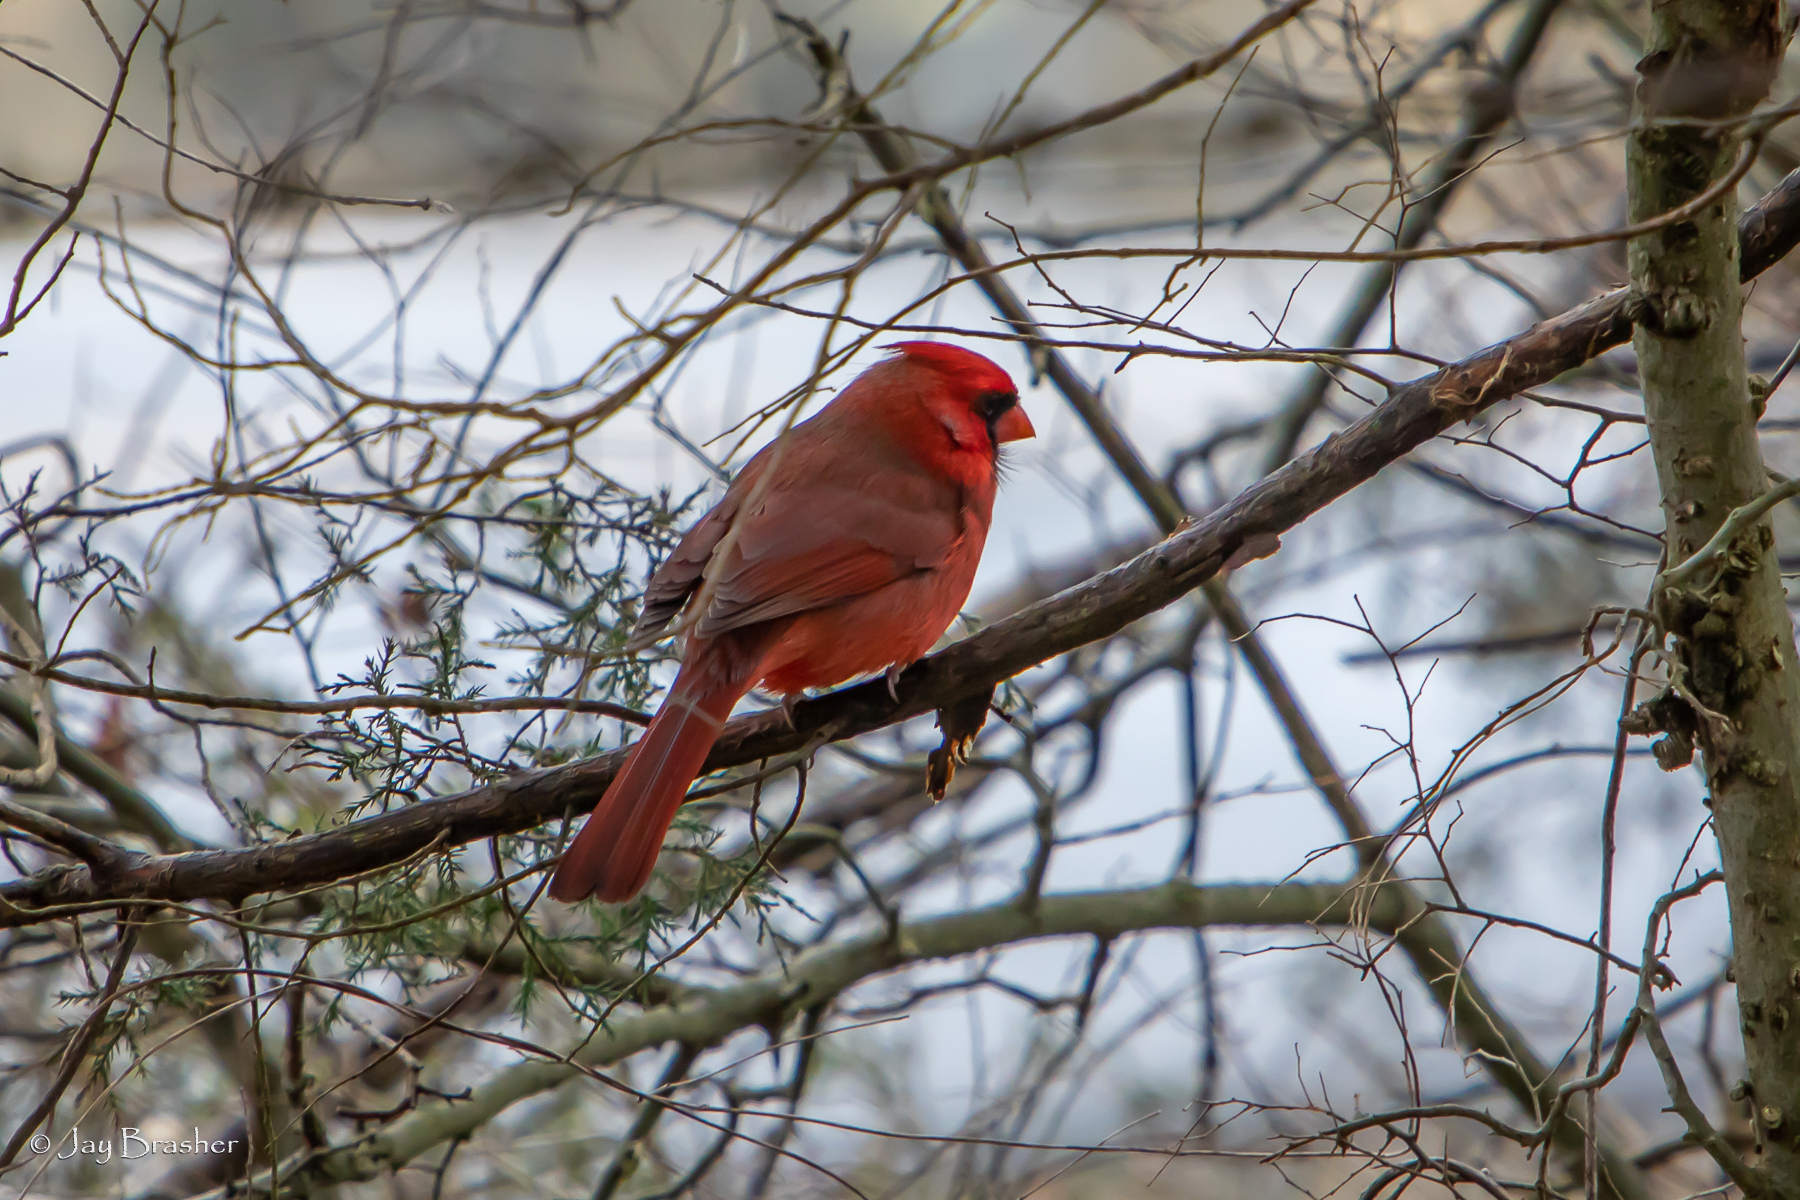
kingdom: Animalia
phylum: Chordata
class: Aves
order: Passeriformes
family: Cardinalidae
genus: Cardinalis
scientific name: Cardinalis cardinalis
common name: Northern cardinal
